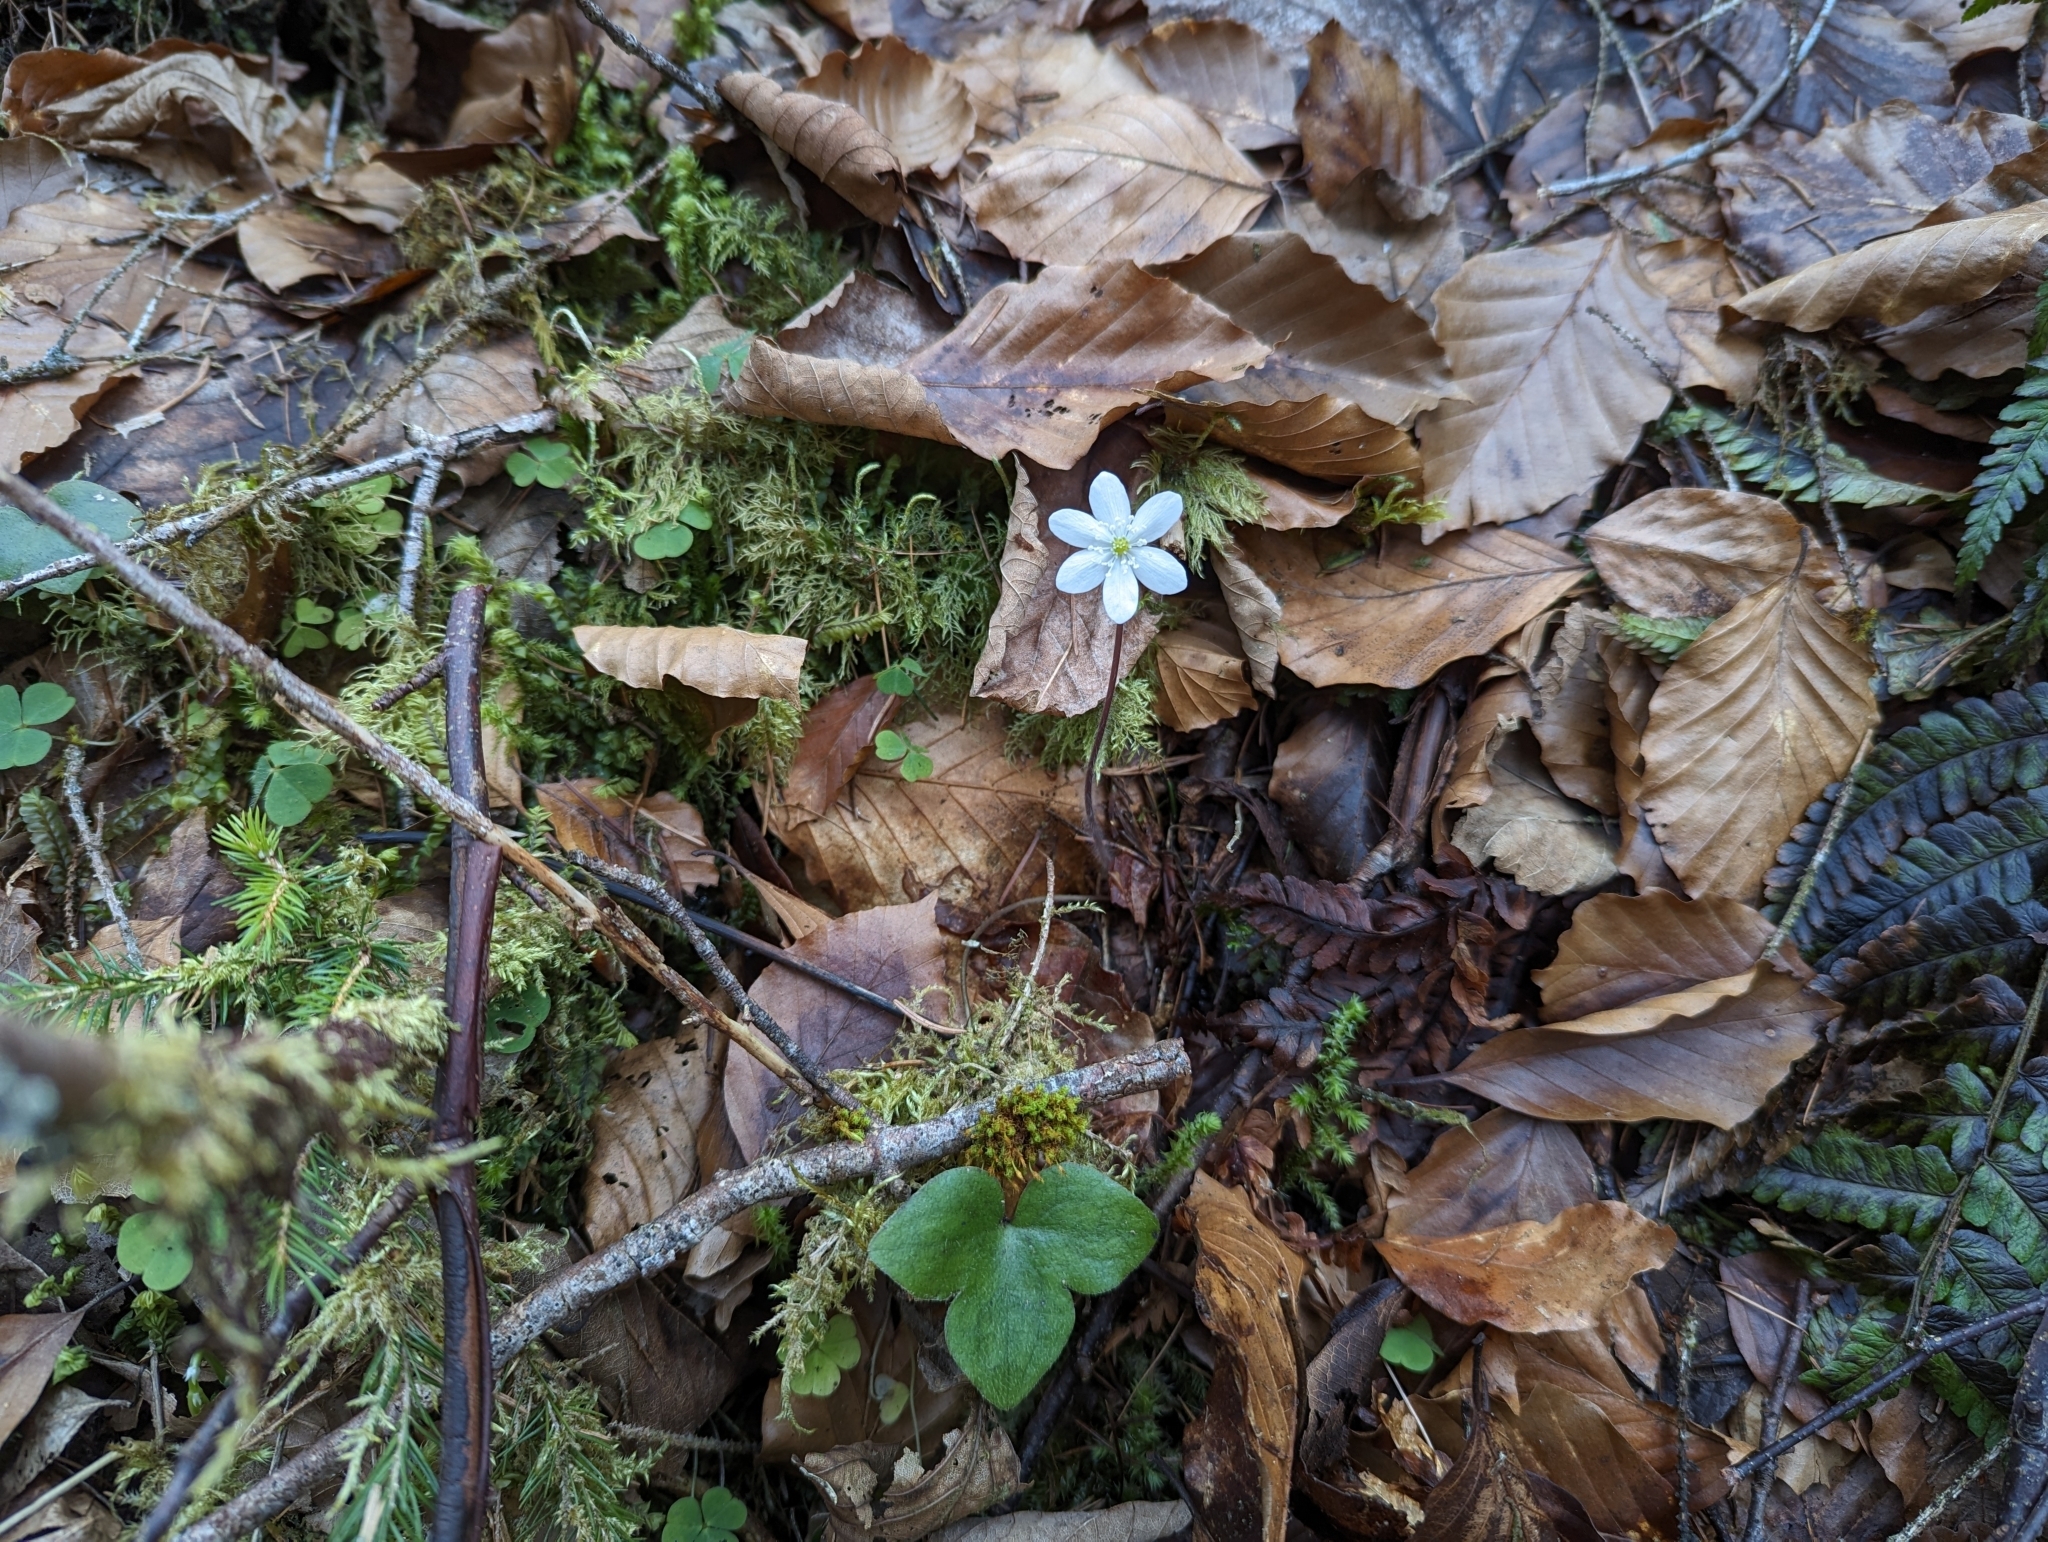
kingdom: Plantae
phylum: Tracheophyta
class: Magnoliopsida
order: Ranunculales
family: Ranunculaceae
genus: Hepatica
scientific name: Hepatica nobilis
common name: Liverleaf
